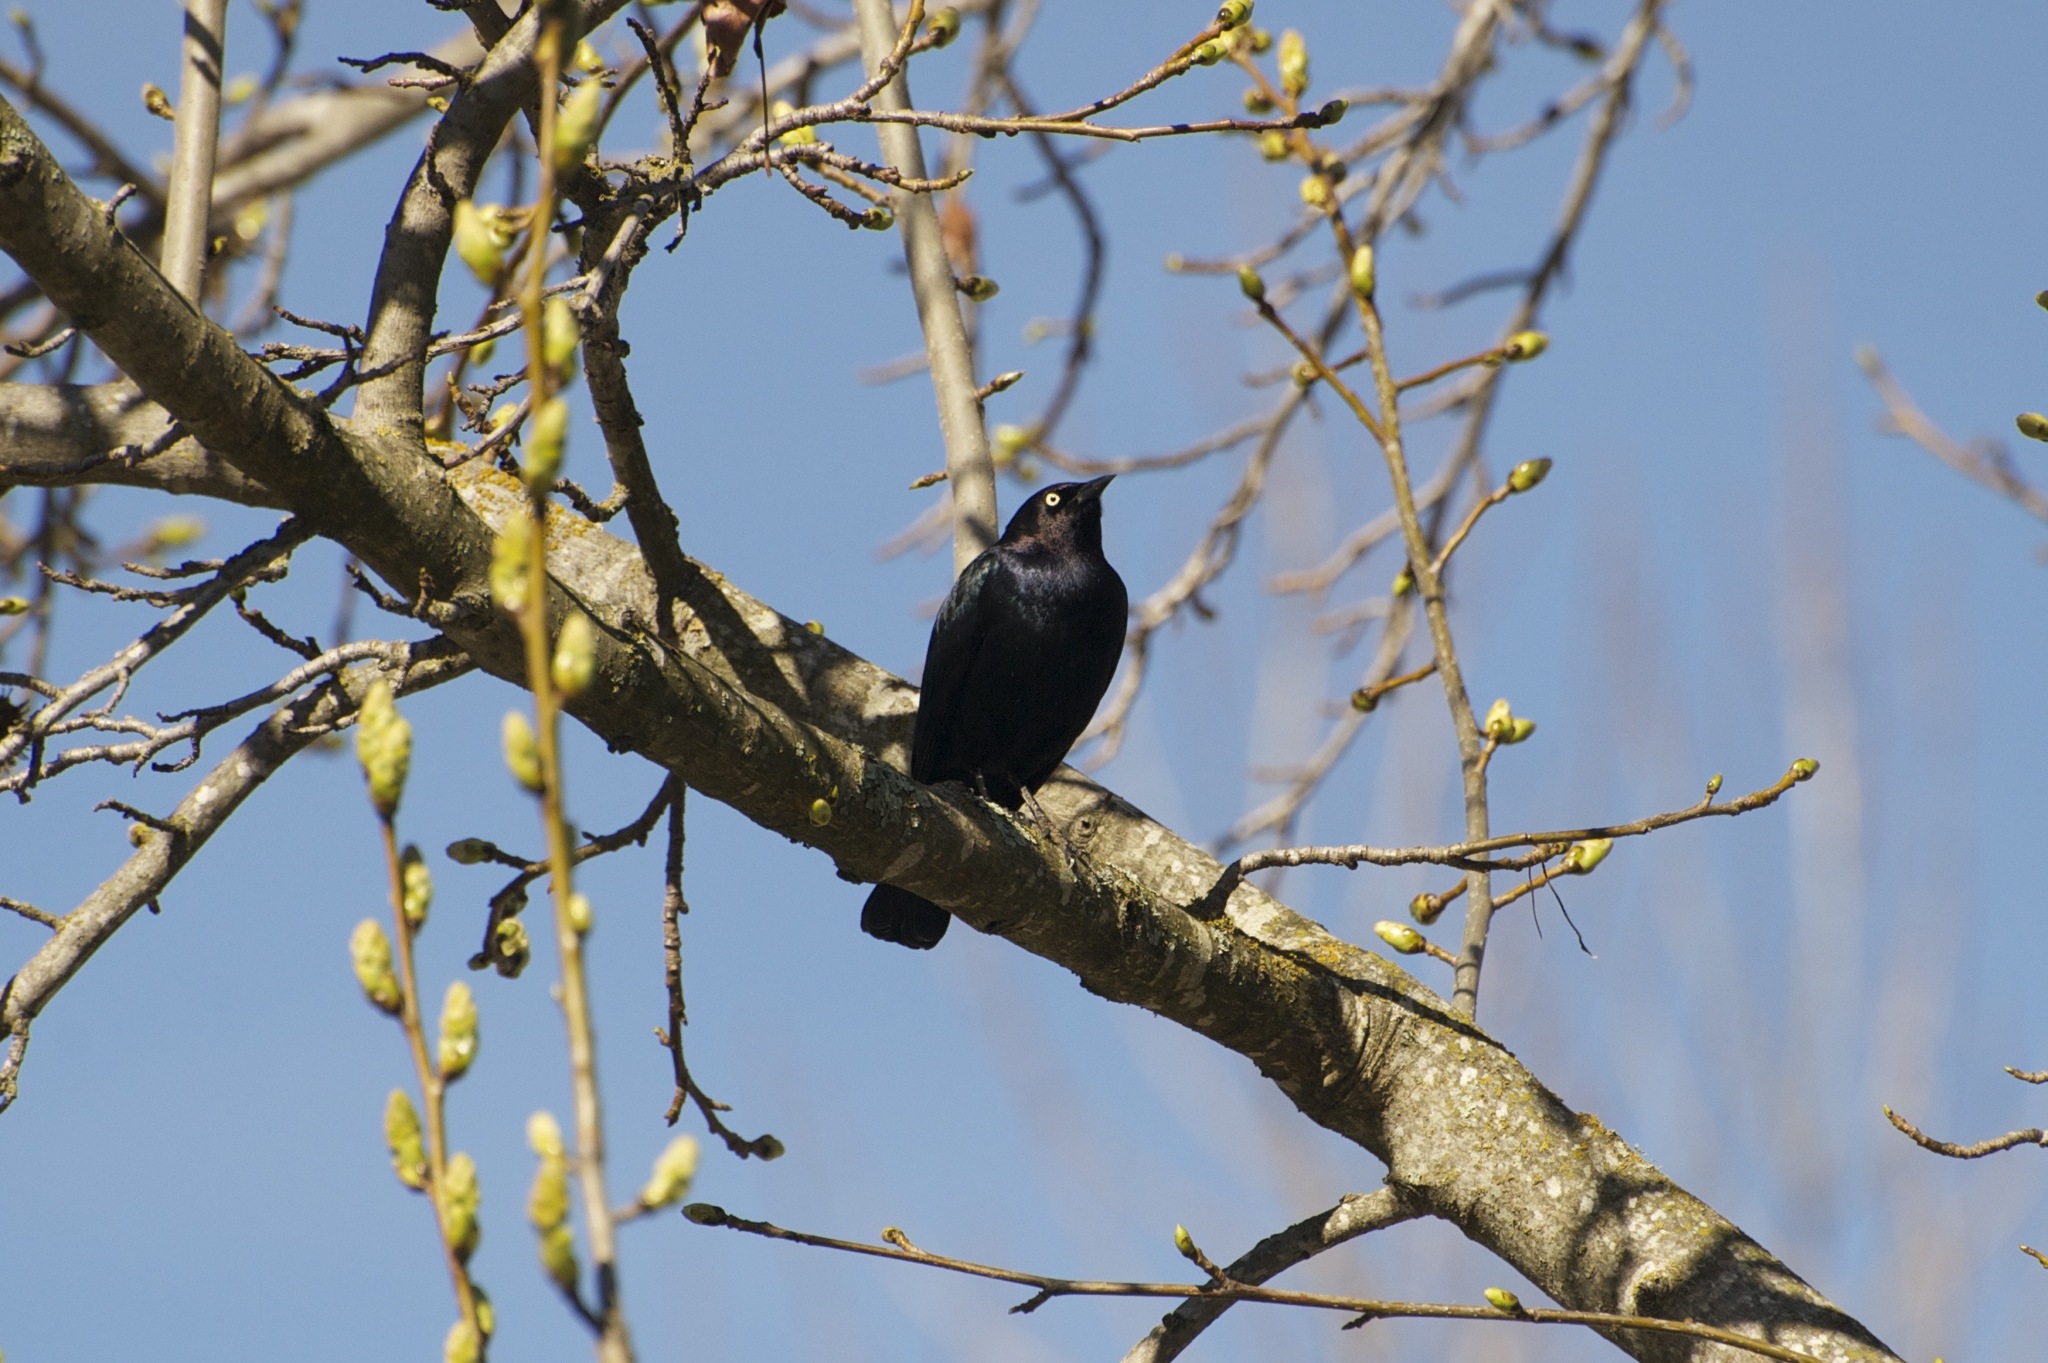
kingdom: Animalia
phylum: Chordata
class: Aves
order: Passeriformes
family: Icteridae
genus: Euphagus
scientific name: Euphagus cyanocephalus
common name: Brewer's blackbird
